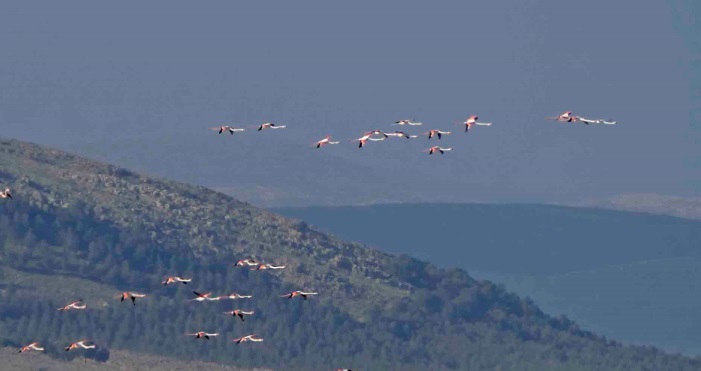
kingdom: Animalia
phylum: Chordata
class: Aves
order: Phoenicopteriformes
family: Phoenicopteridae
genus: Phoenicopterus
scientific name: Phoenicopterus roseus
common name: Greater flamingo
